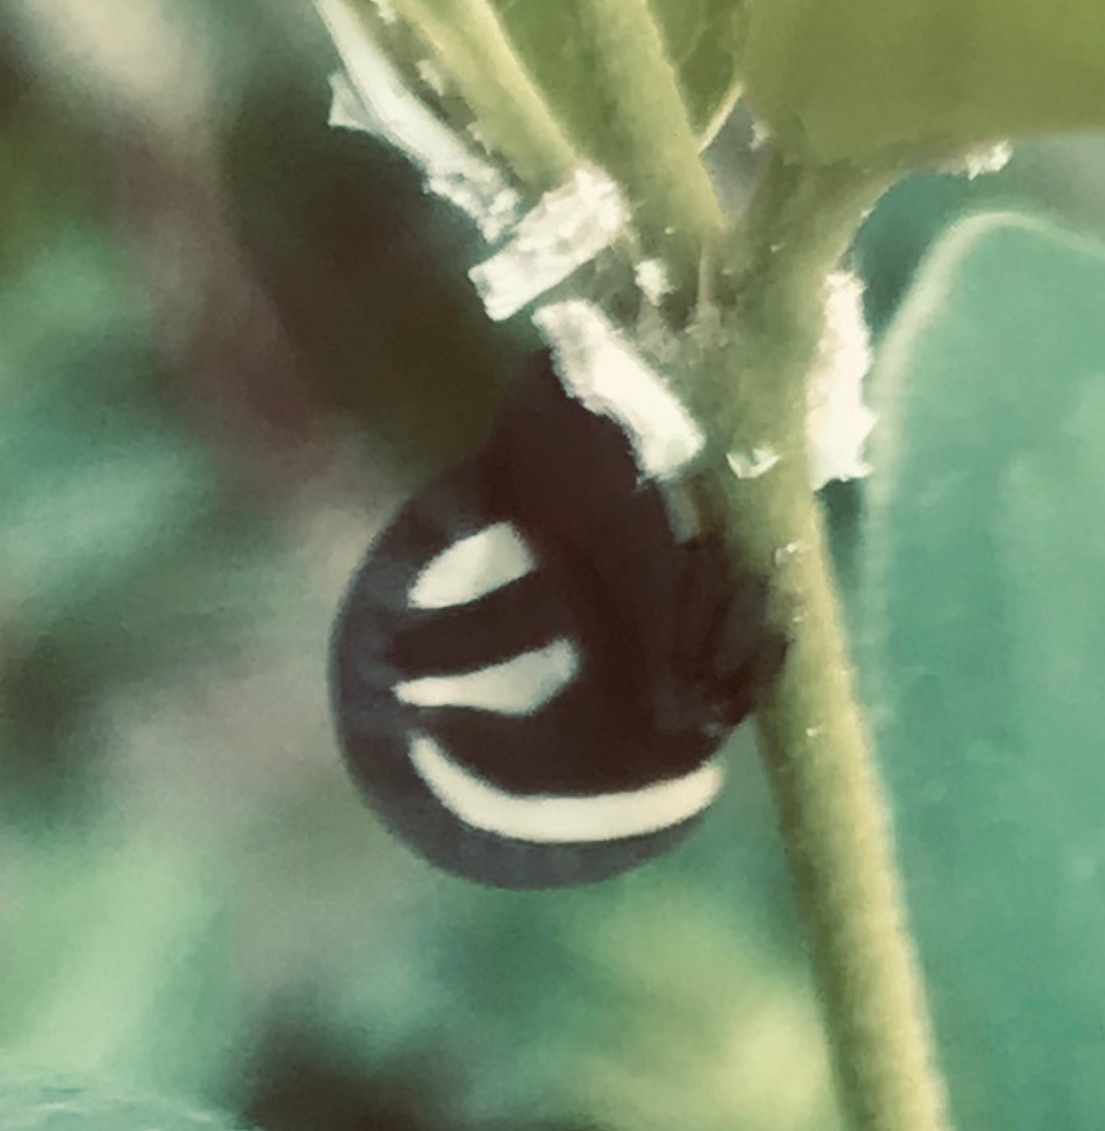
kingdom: Animalia
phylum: Arthropoda
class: Insecta
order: Hemiptera
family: Membracidae
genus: Membracis
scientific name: Membracis
